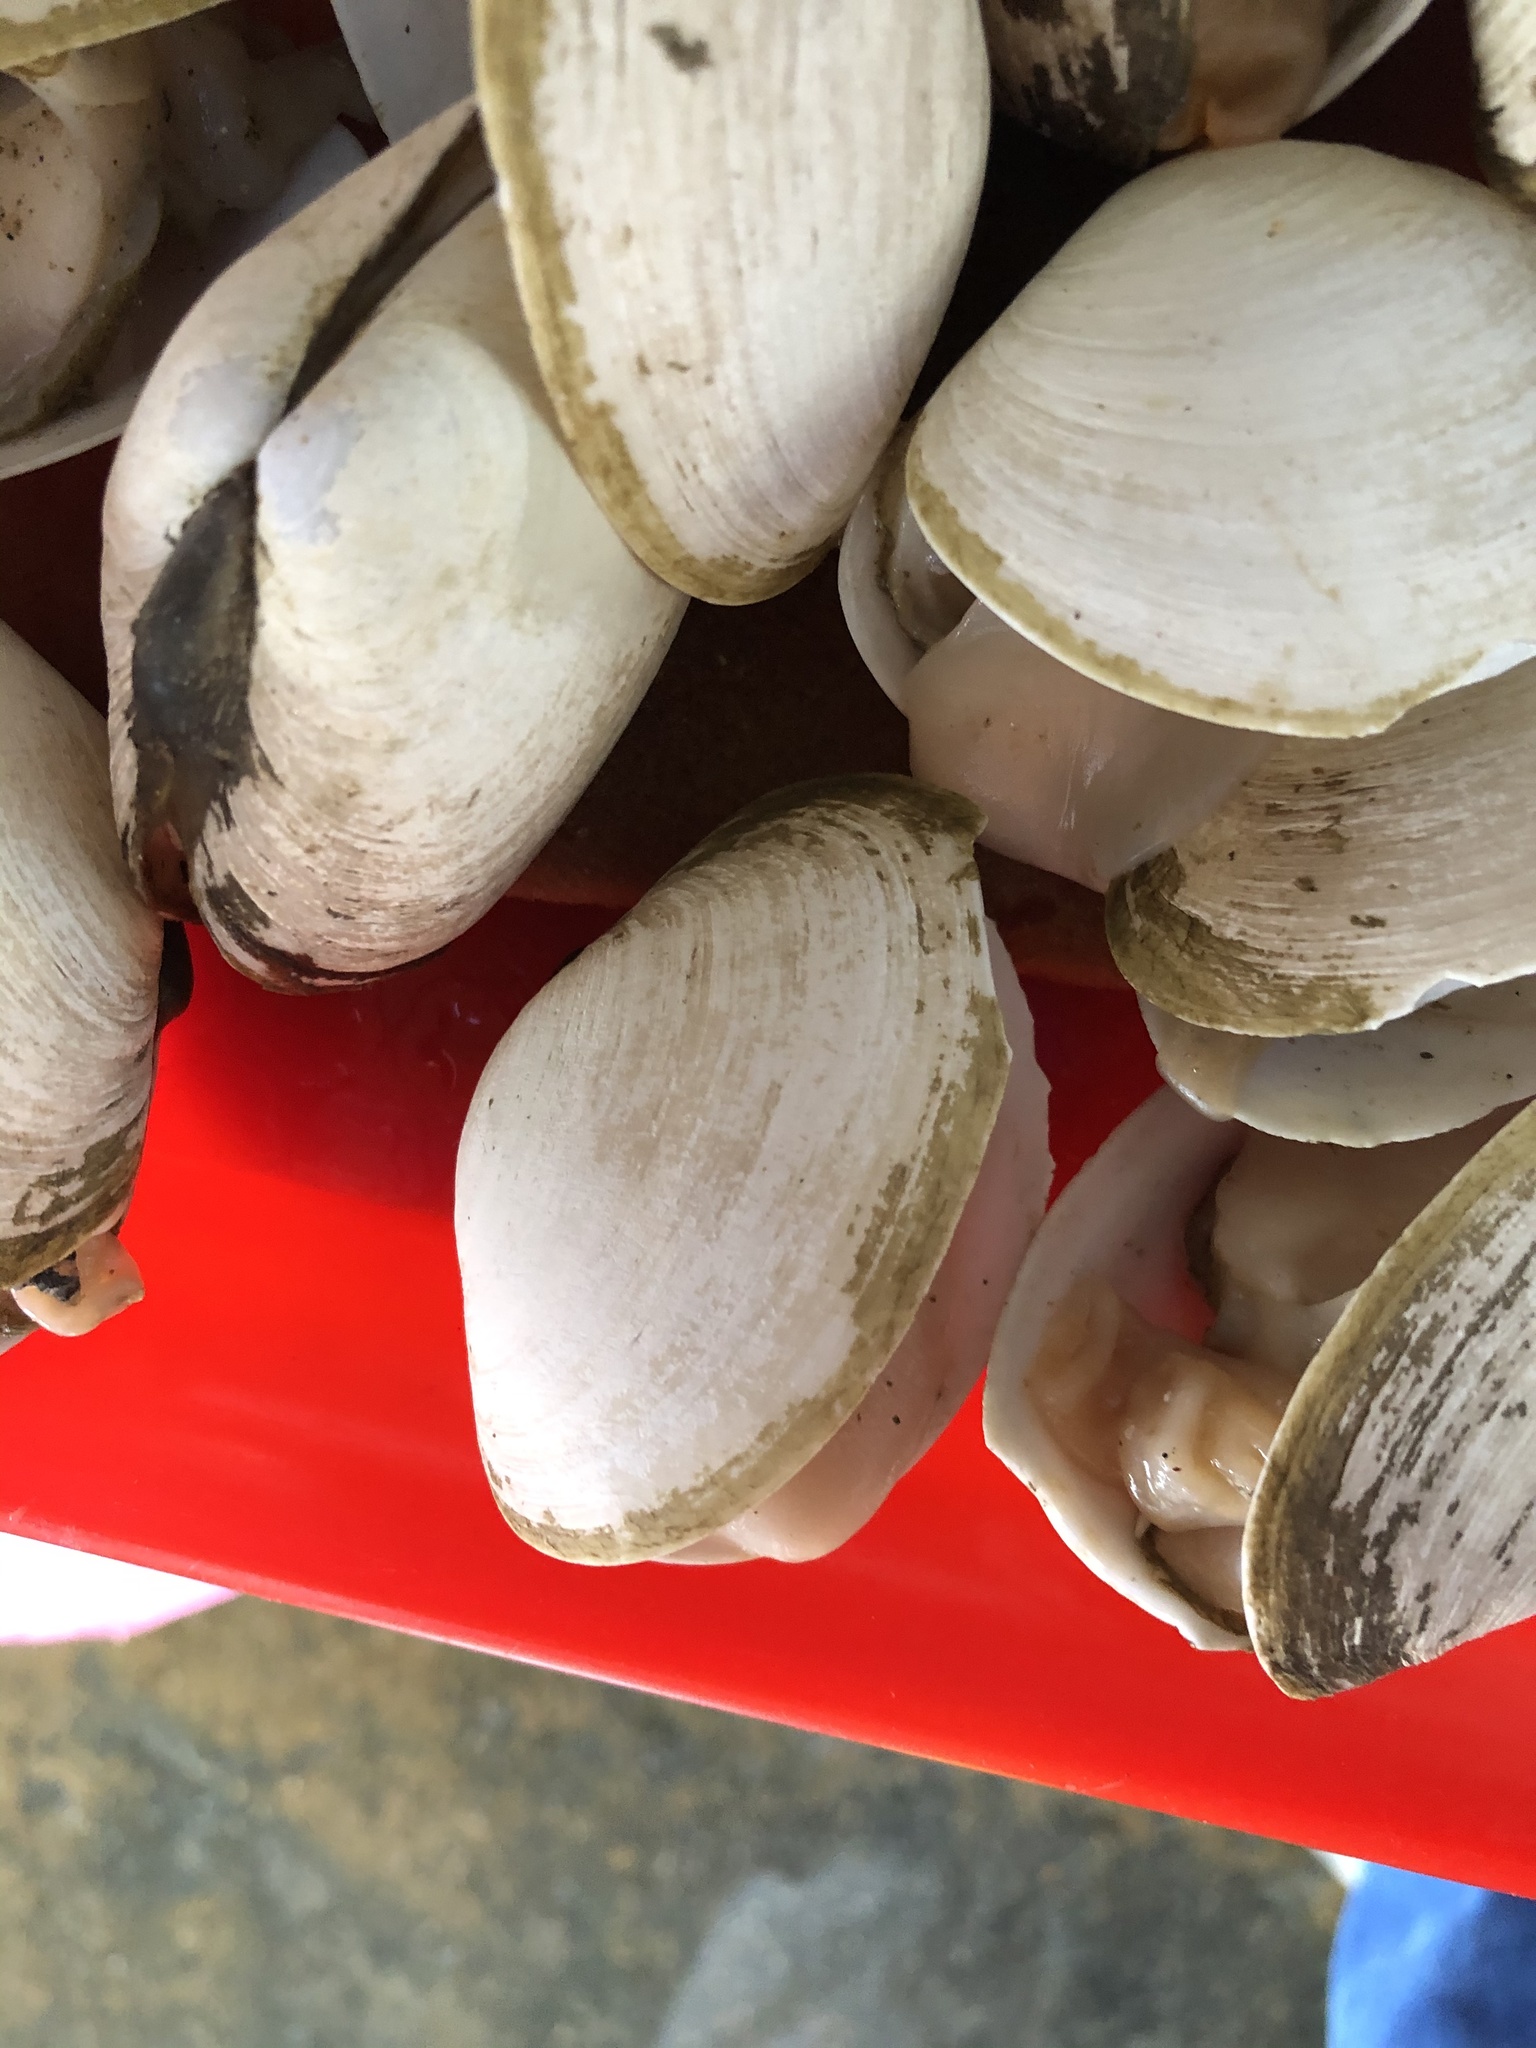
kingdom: Animalia
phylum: Mollusca
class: Bivalvia
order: Cardiida
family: Psammobiidae
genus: Gari
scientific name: Gari solida
